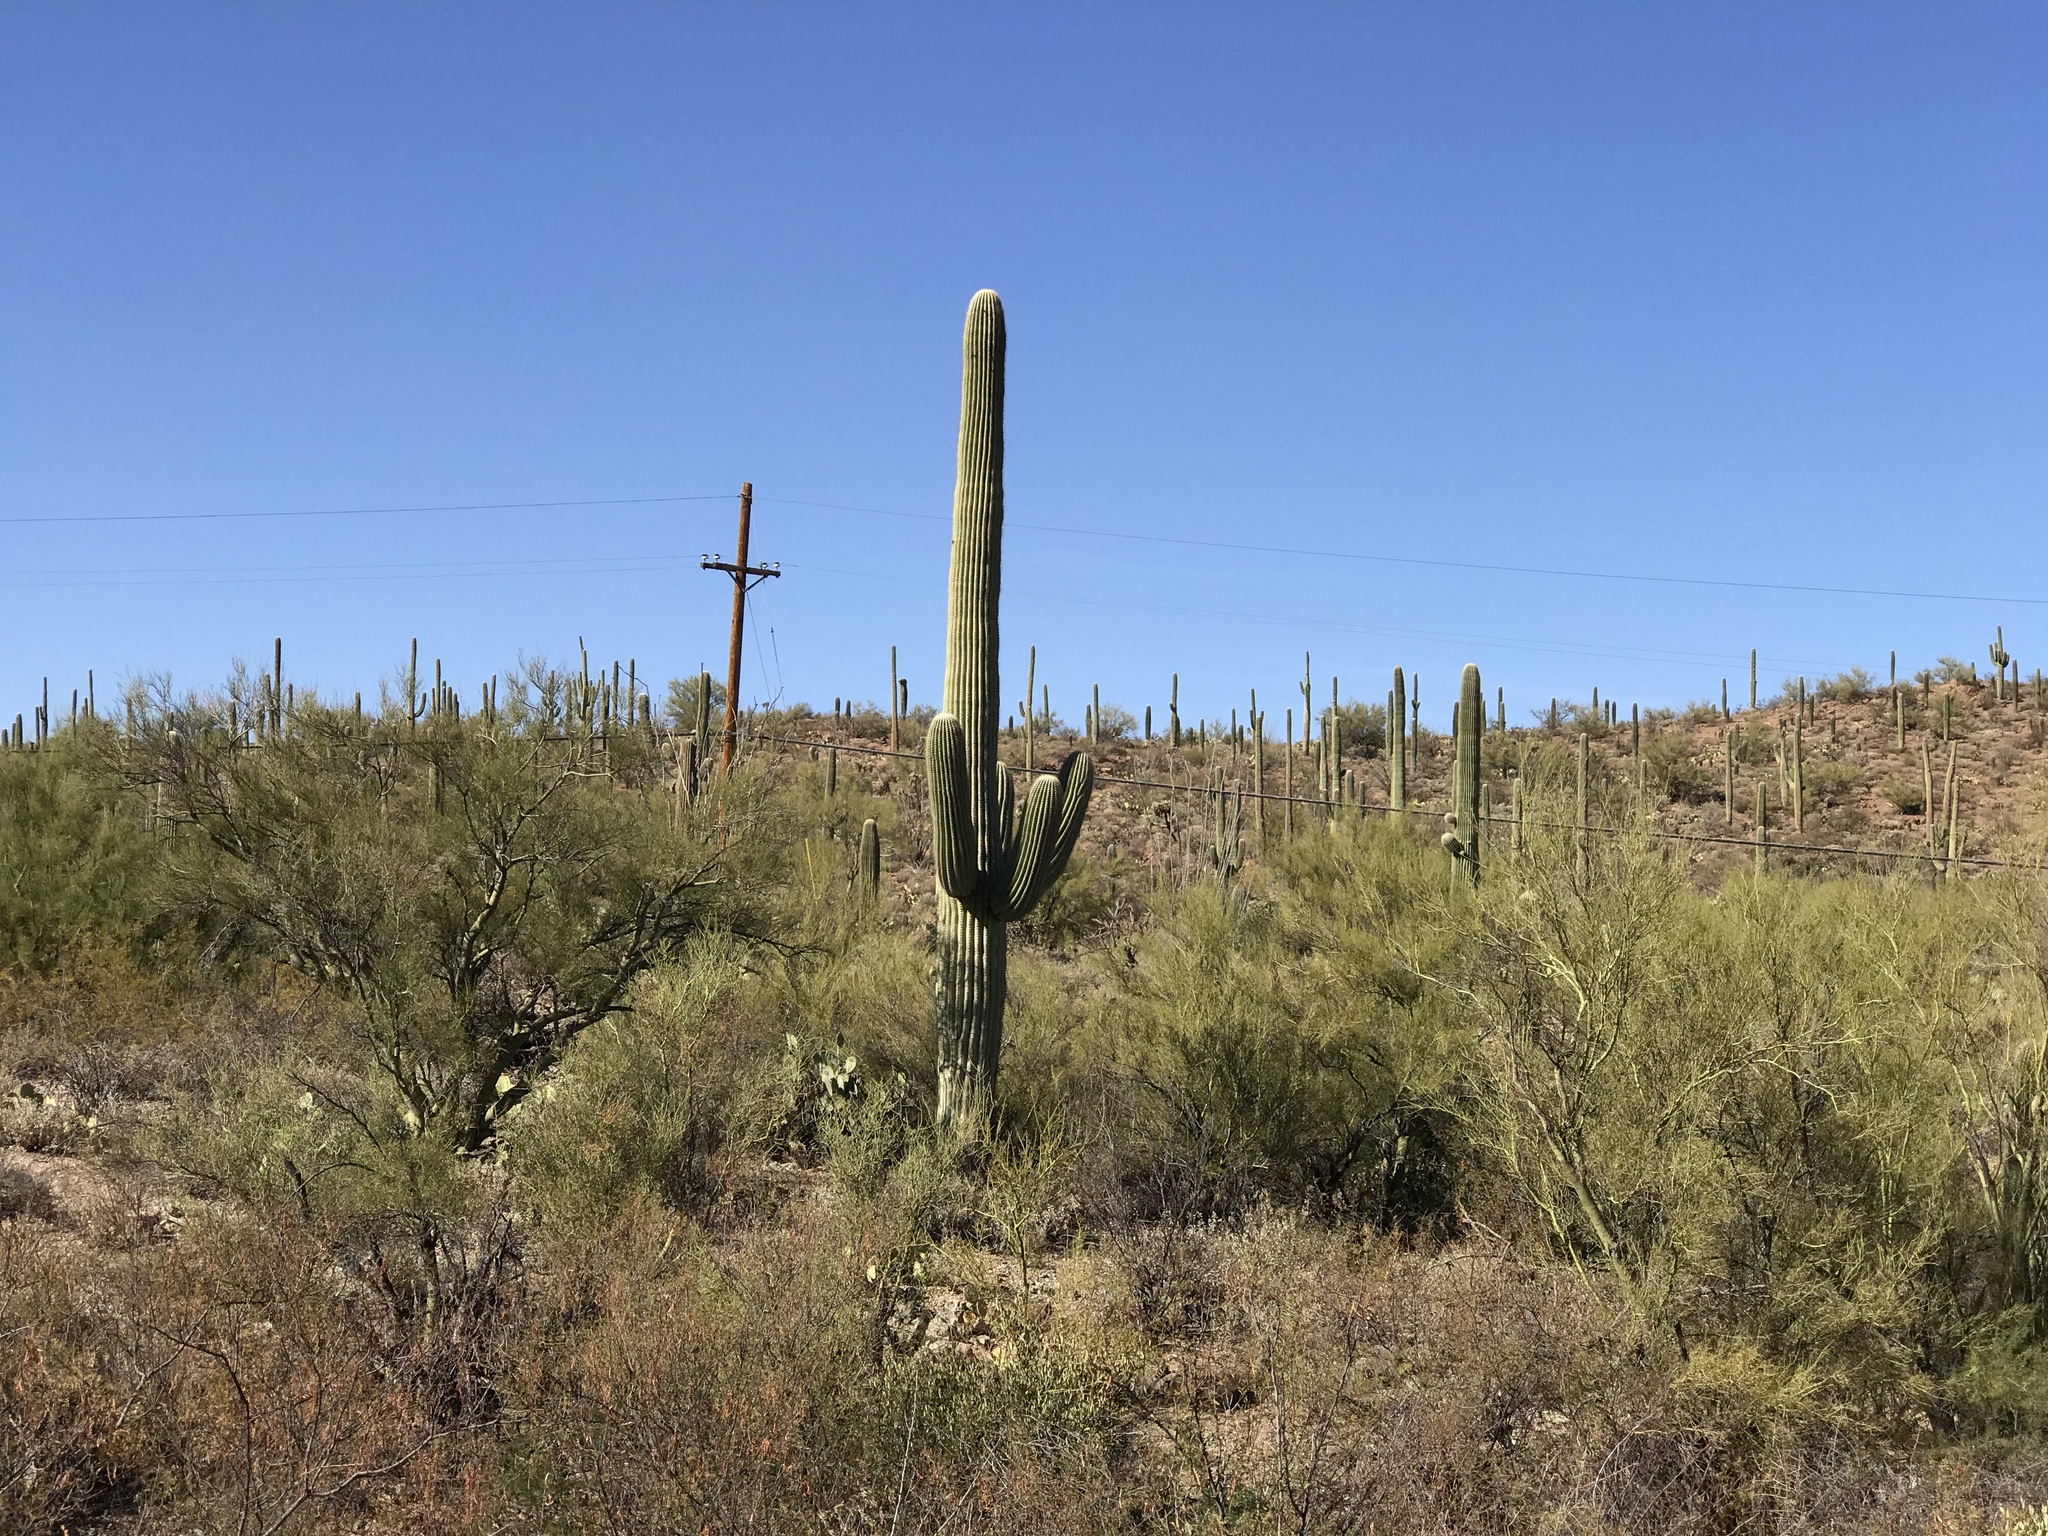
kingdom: Plantae
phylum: Tracheophyta
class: Magnoliopsida
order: Caryophyllales
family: Cactaceae
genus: Carnegiea
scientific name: Carnegiea gigantea
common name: Saguaro
